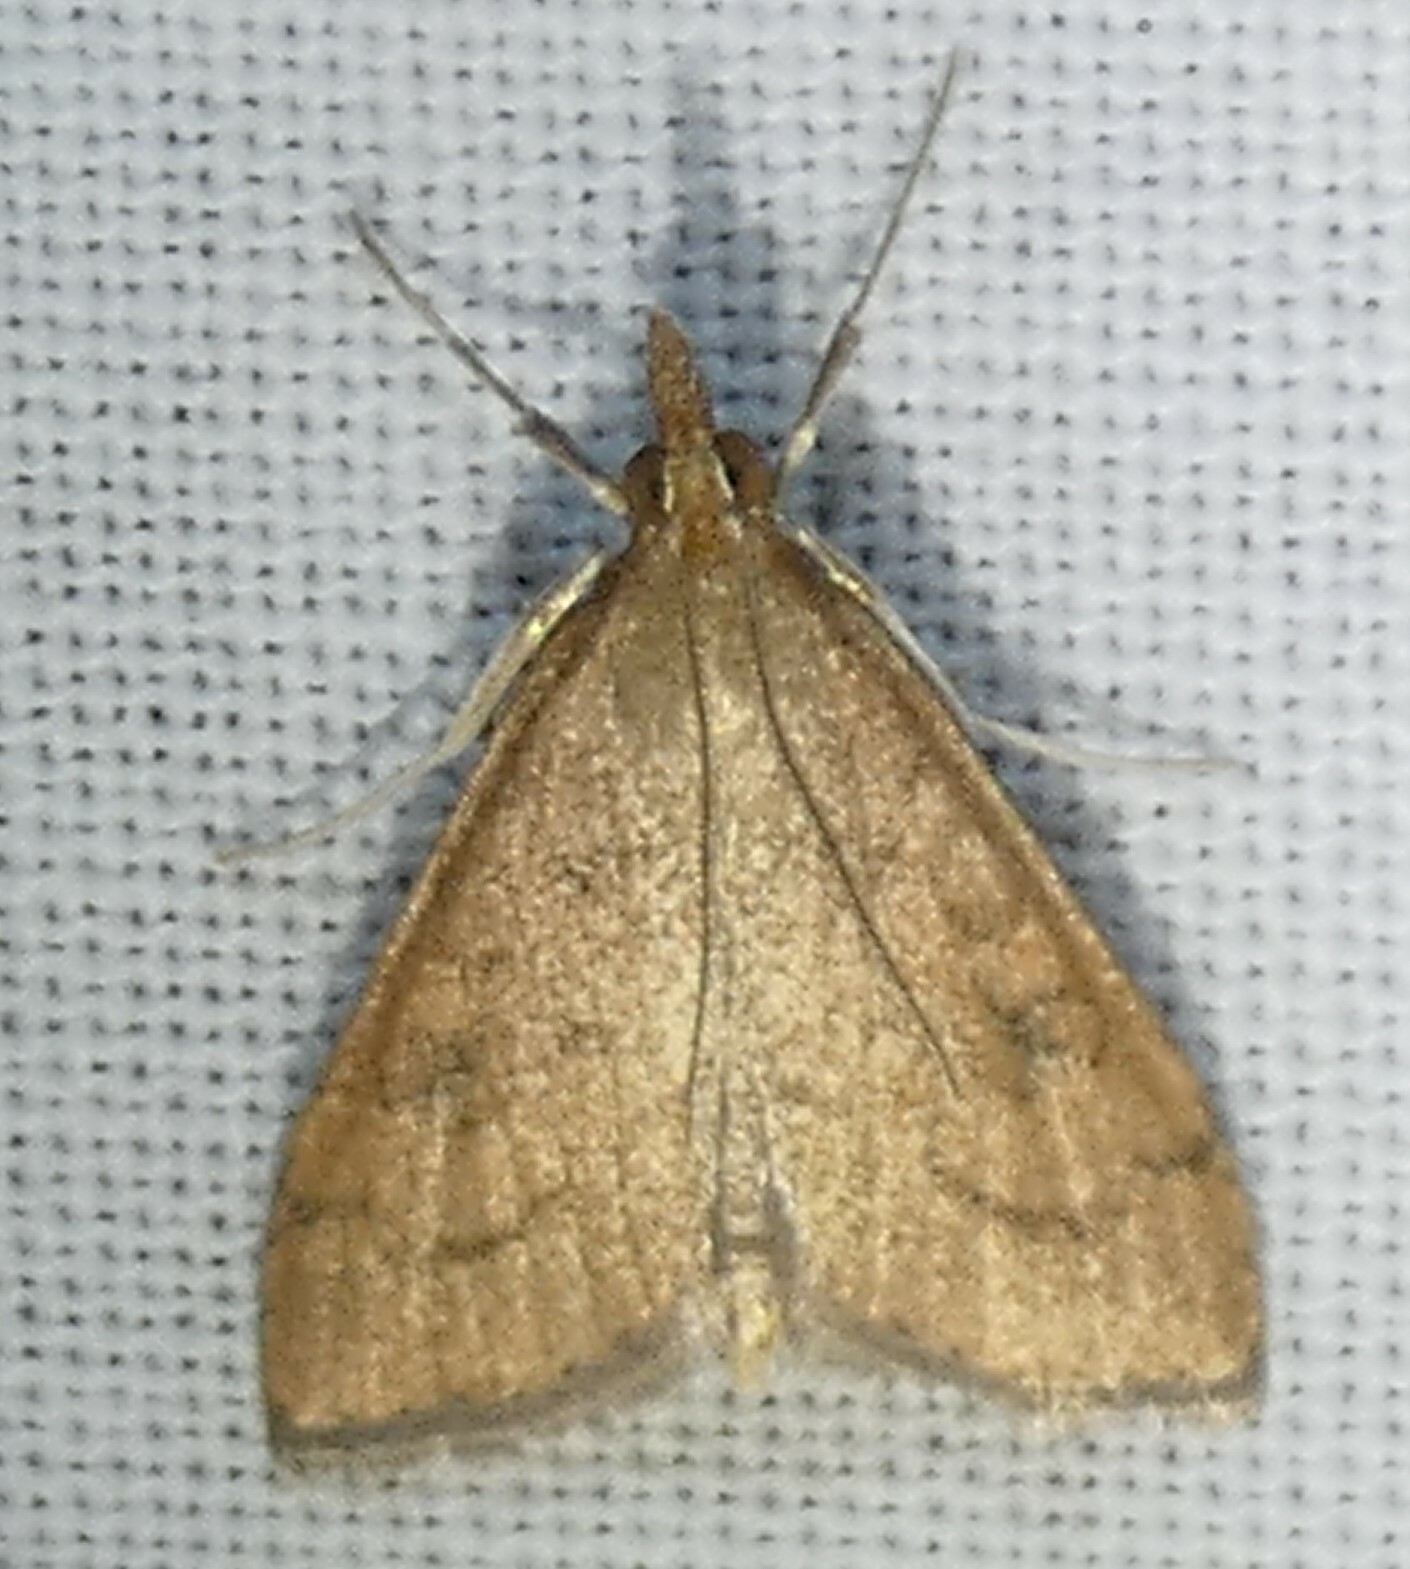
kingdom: Animalia
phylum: Arthropoda
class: Insecta
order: Lepidoptera
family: Crambidae
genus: Udea
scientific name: Udea rubigalis
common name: Celery leaftier moth
